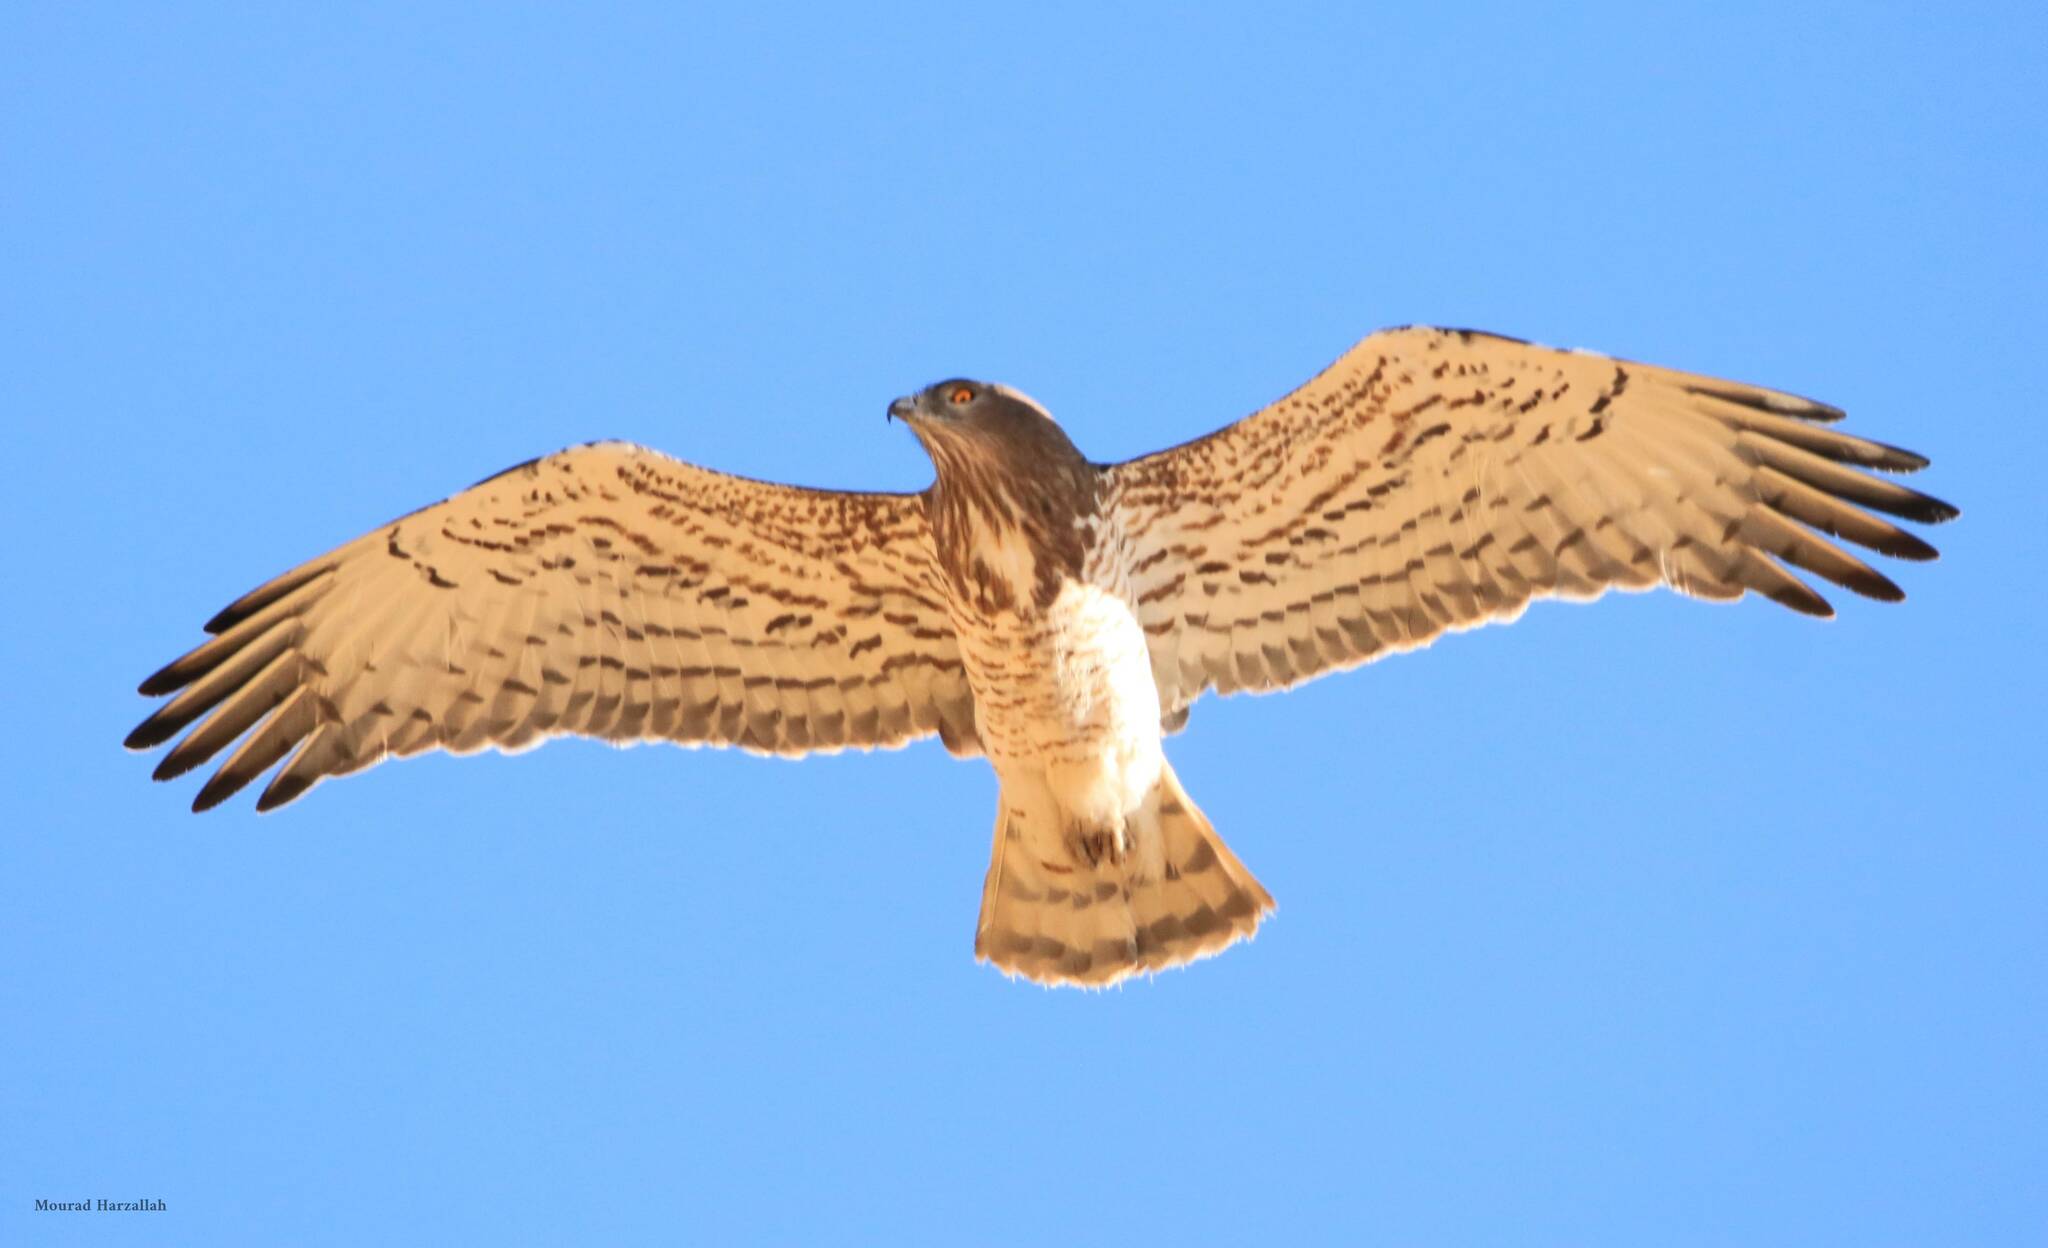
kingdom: Animalia
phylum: Chordata
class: Aves
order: Accipitriformes
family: Accipitridae
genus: Circaetus
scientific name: Circaetus gallicus
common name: Short-toed snake eagle
